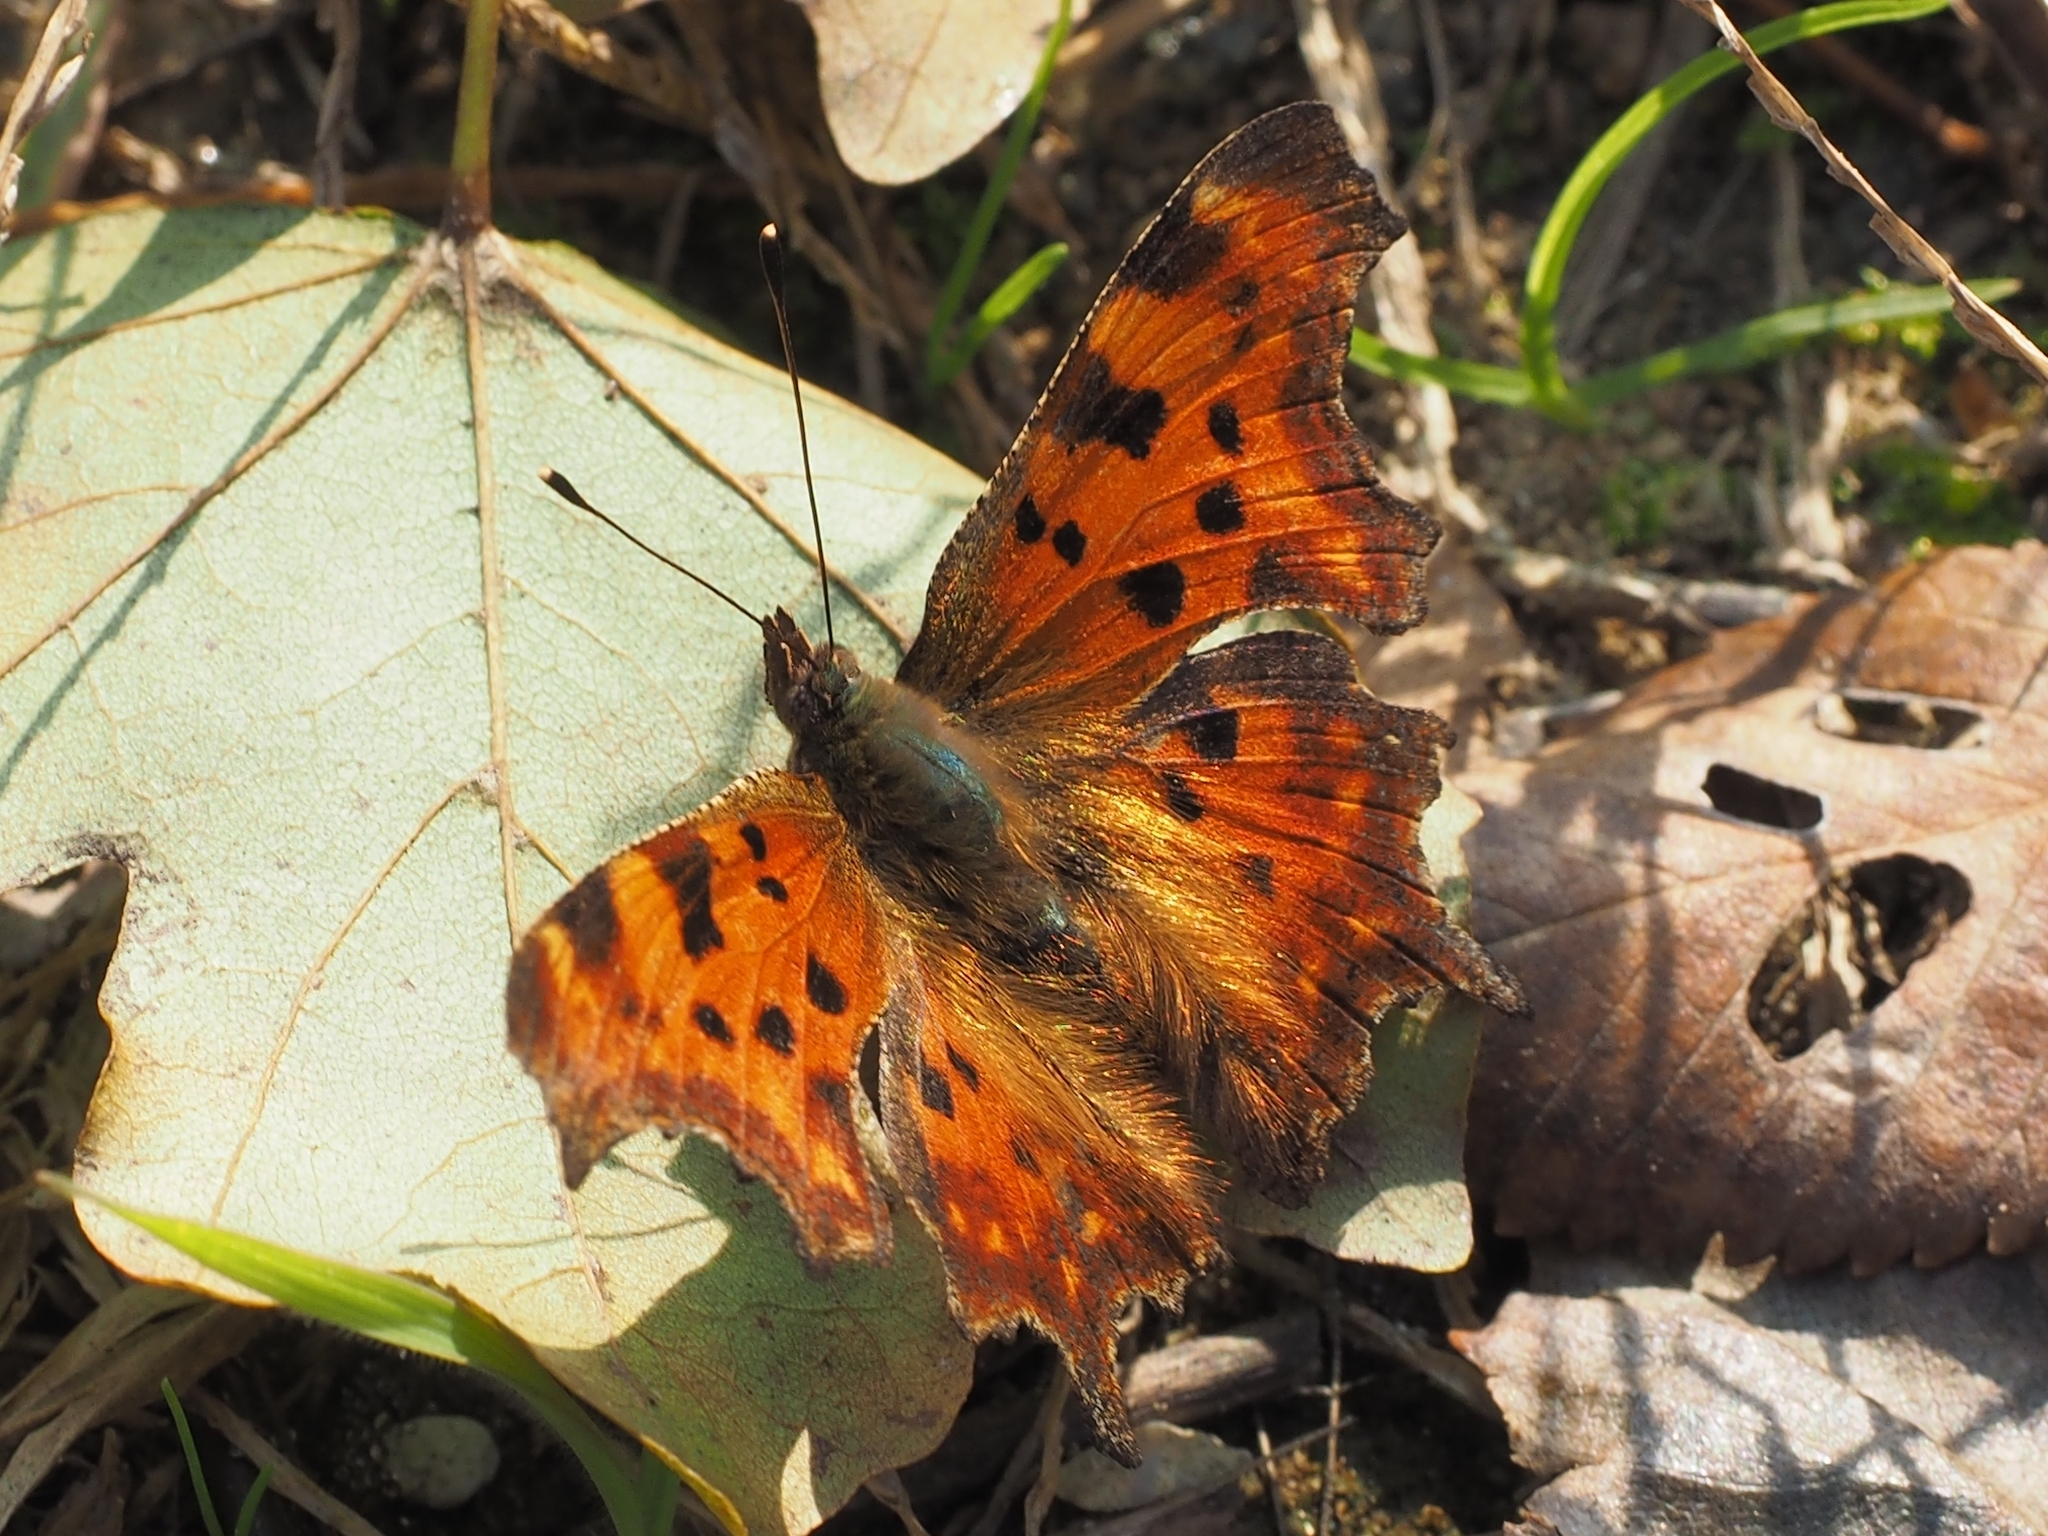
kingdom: Animalia
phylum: Arthropoda
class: Insecta
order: Lepidoptera
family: Nymphalidae
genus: Polygonia
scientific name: Polygonia c-album
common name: Comma
